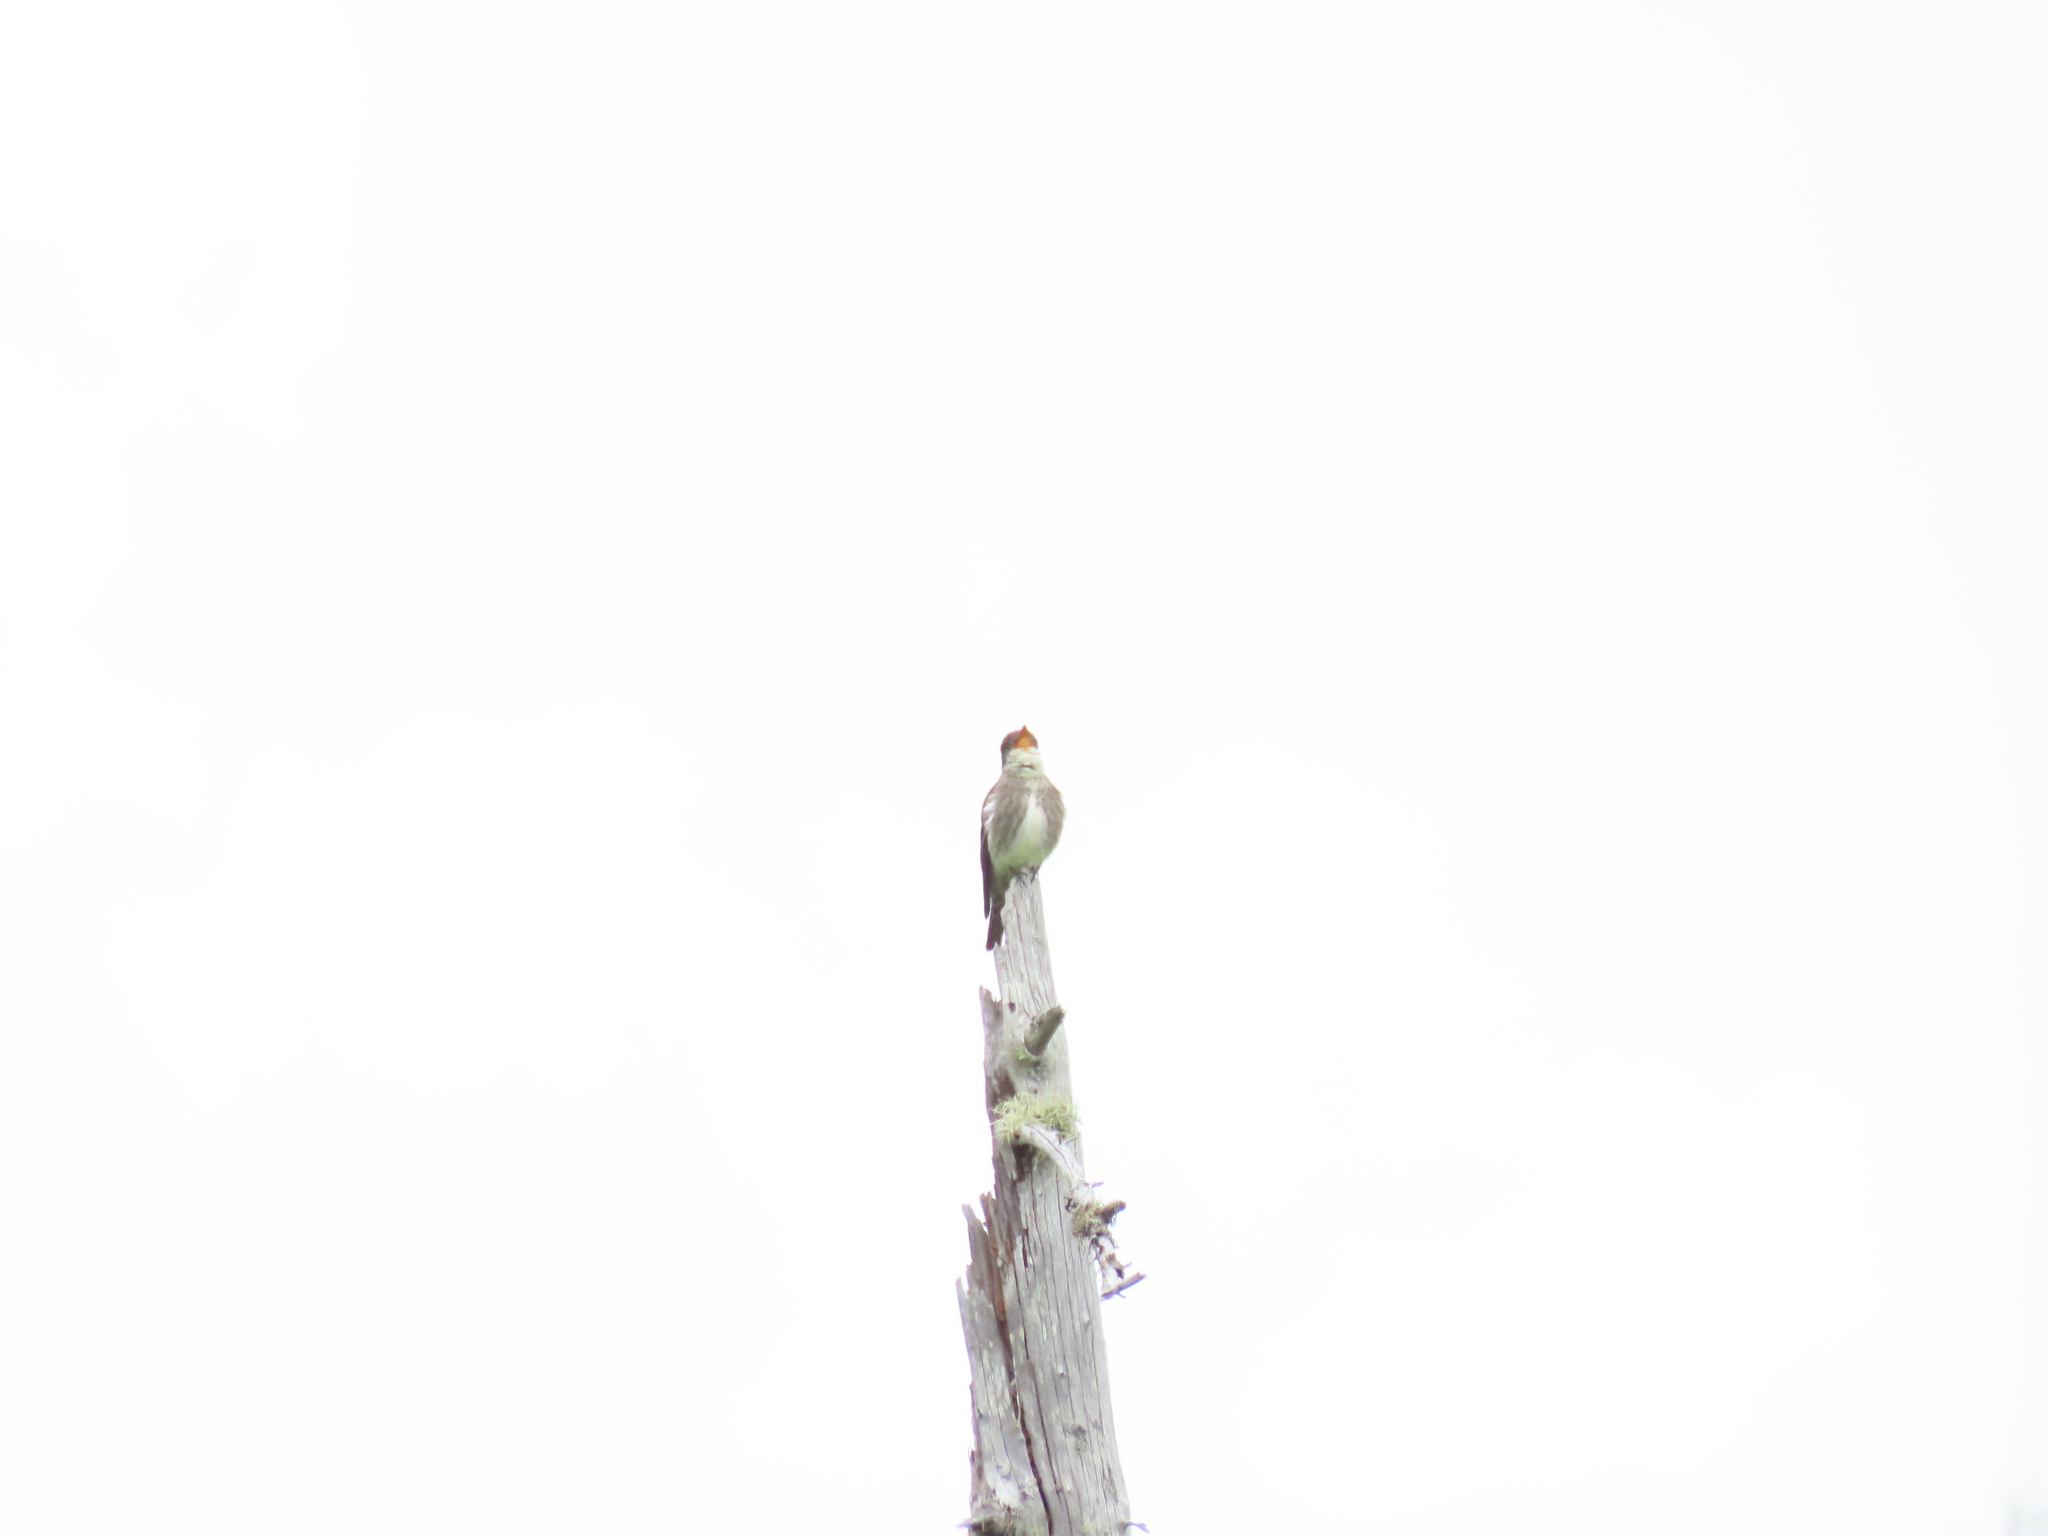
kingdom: Animalia
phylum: Chordata
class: Aves
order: Passeriformes
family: Tyrannidae
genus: Contopus
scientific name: Contopus cooperi
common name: Olive-sided flycatcher
